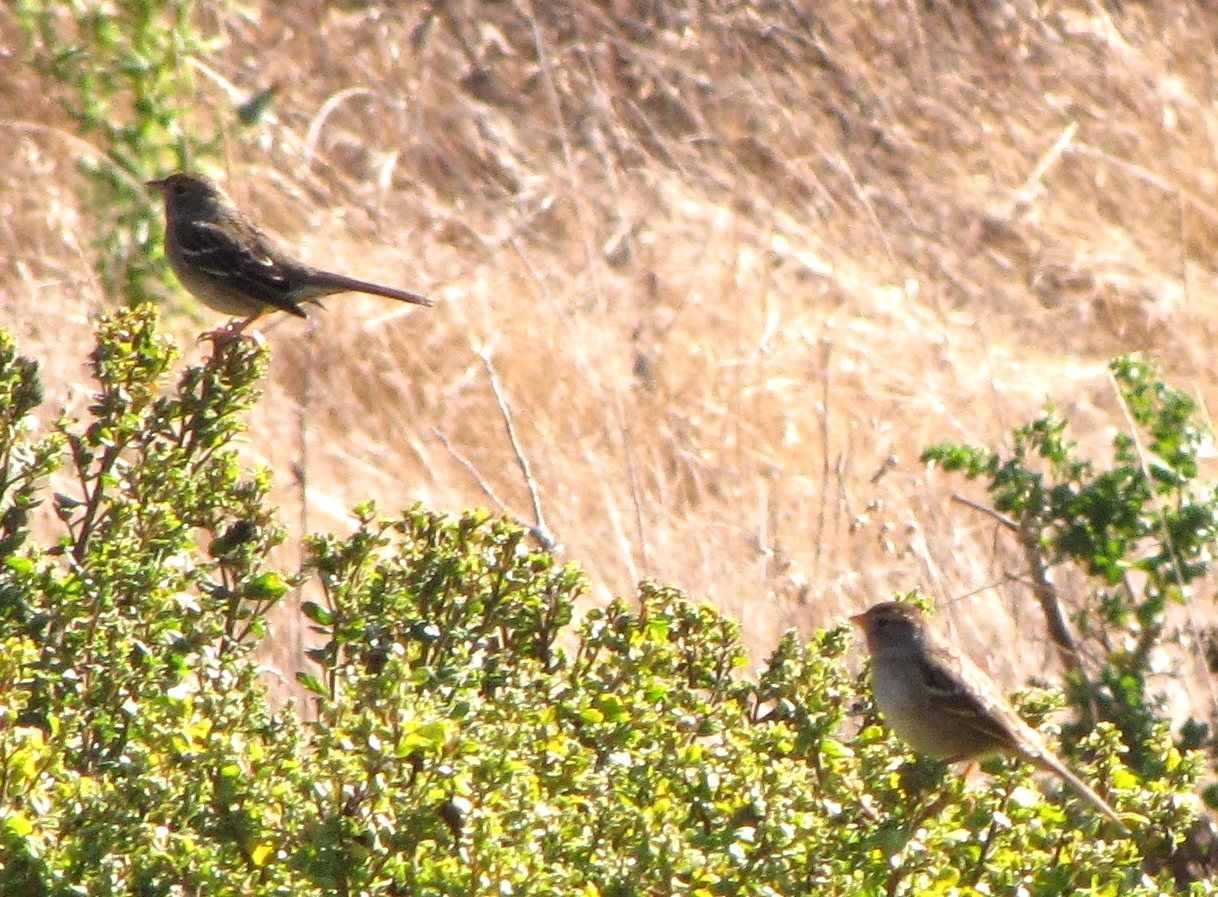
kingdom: Animalia
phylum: Chordata
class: Aves
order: Passeriformes
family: Passerellidae
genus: Zonotrichia
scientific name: Zonotrichia leucophrys
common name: White-crowned sparrow
